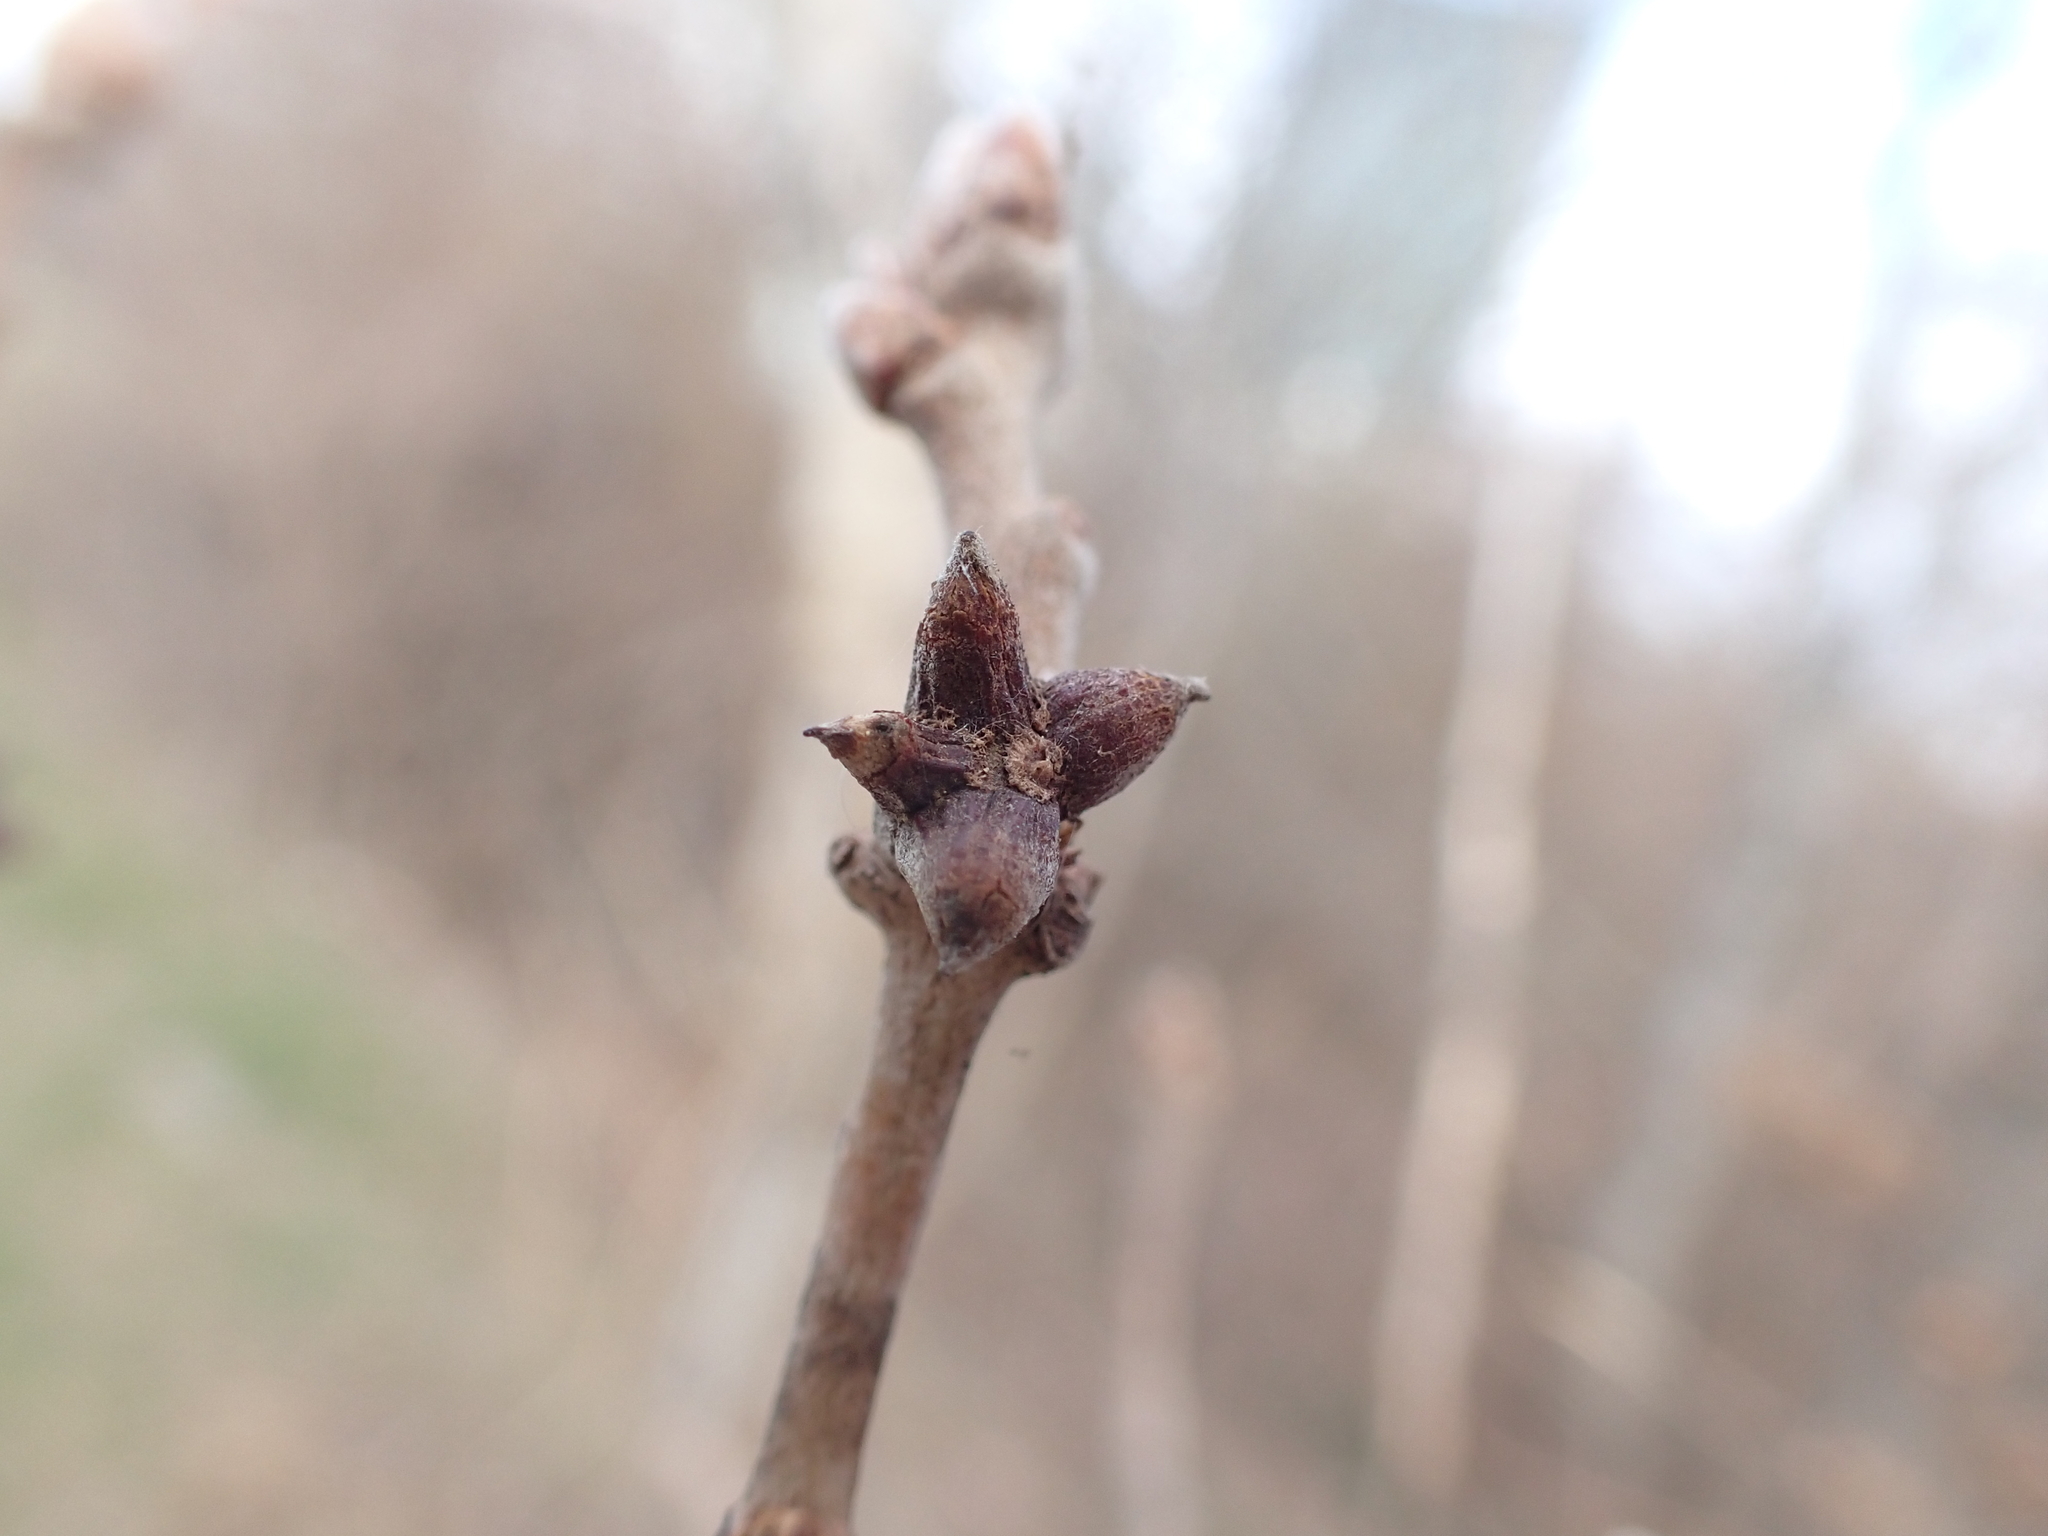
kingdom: Animalia
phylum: Arthropoda
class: Insecta
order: Hymenoptera
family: Cynipidae
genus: Andricus
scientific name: Andricus amblycerus
